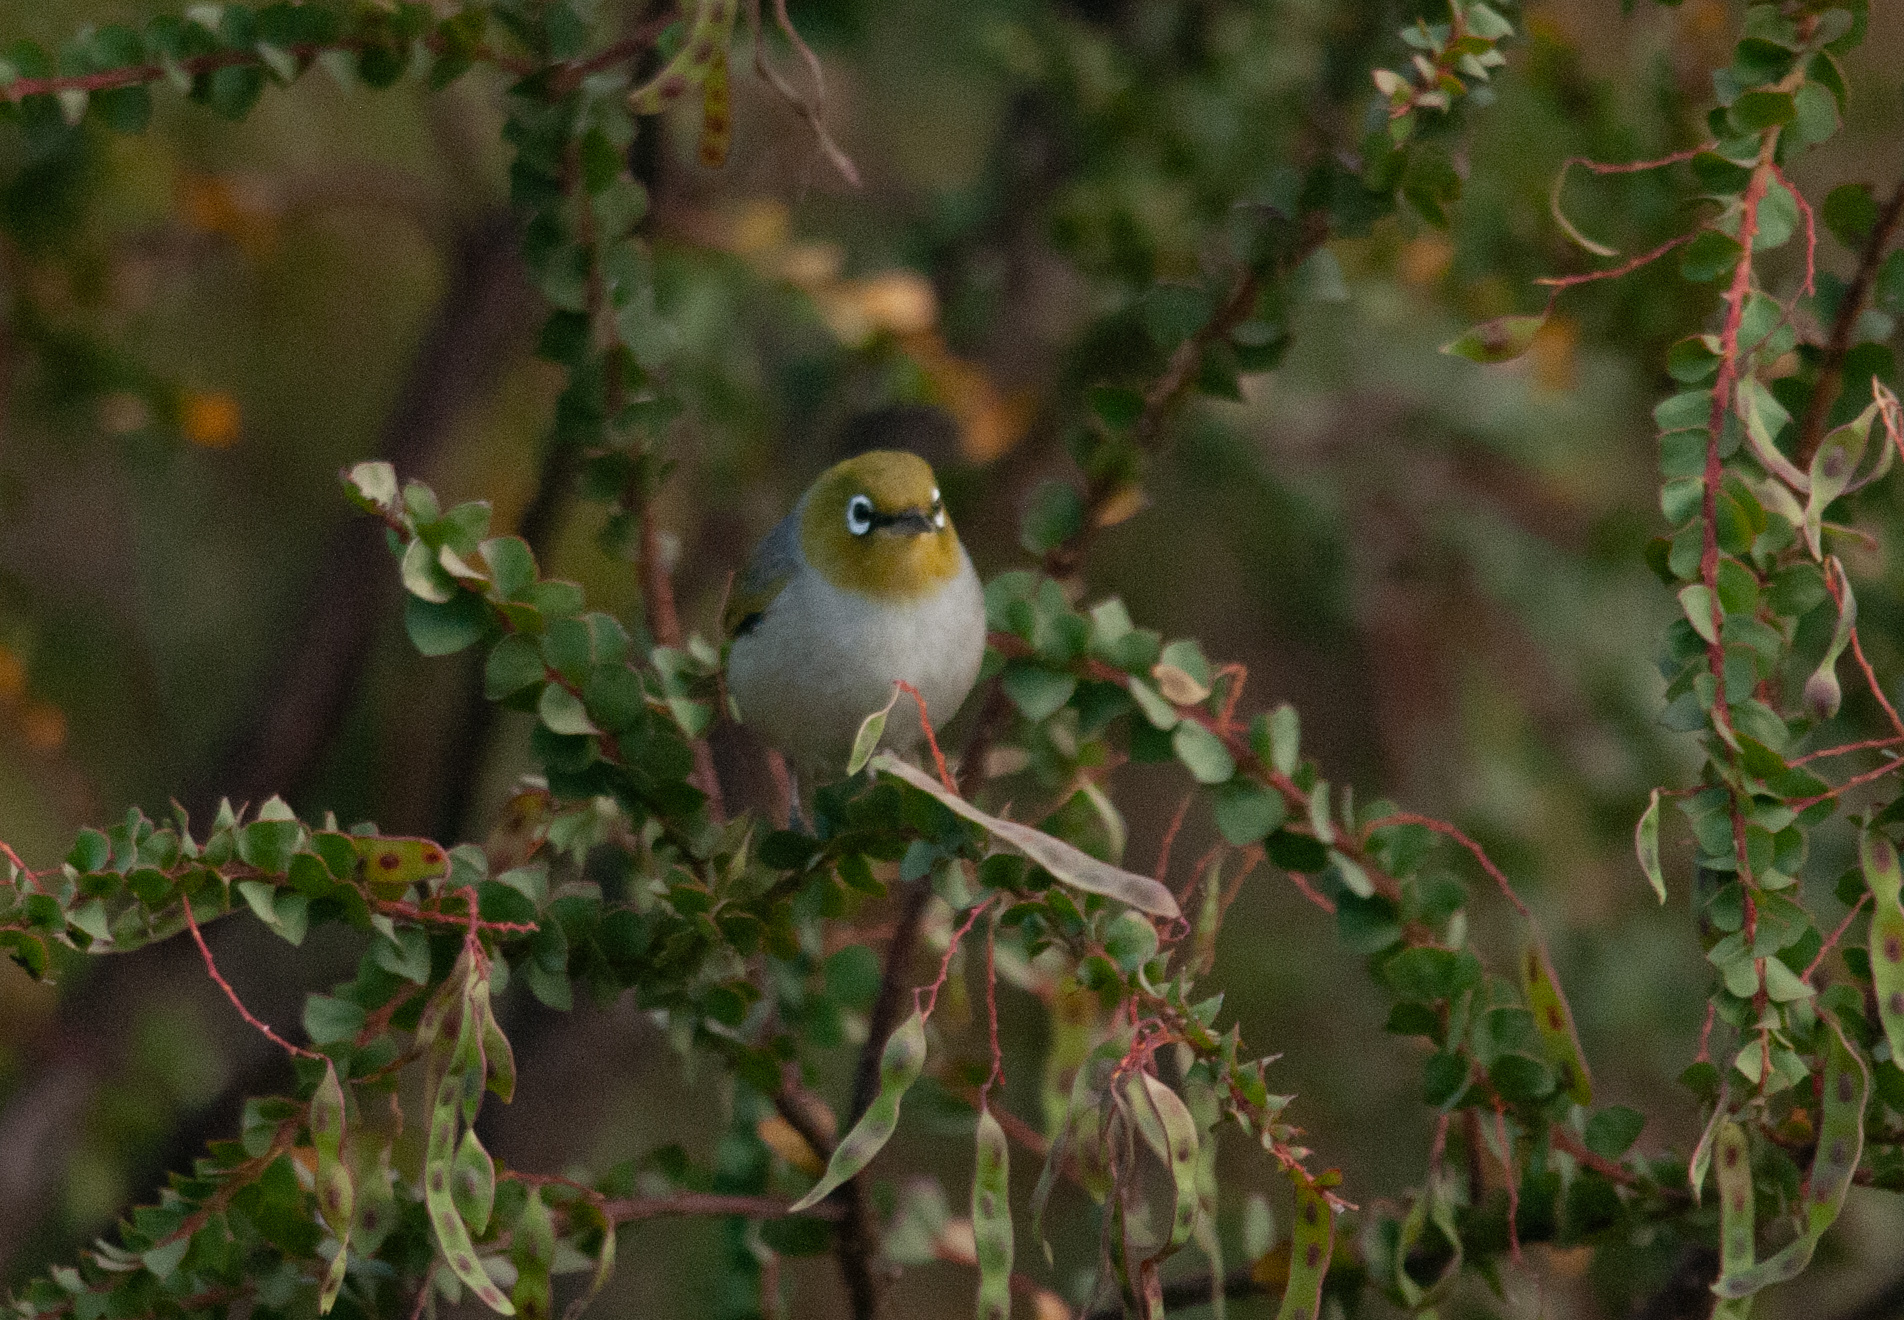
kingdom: Animalia
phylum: Chordata
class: Aves
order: Passeriformes
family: Zosteropidae
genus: Zosterops
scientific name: Zosterops lateralis
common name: Silvereye
